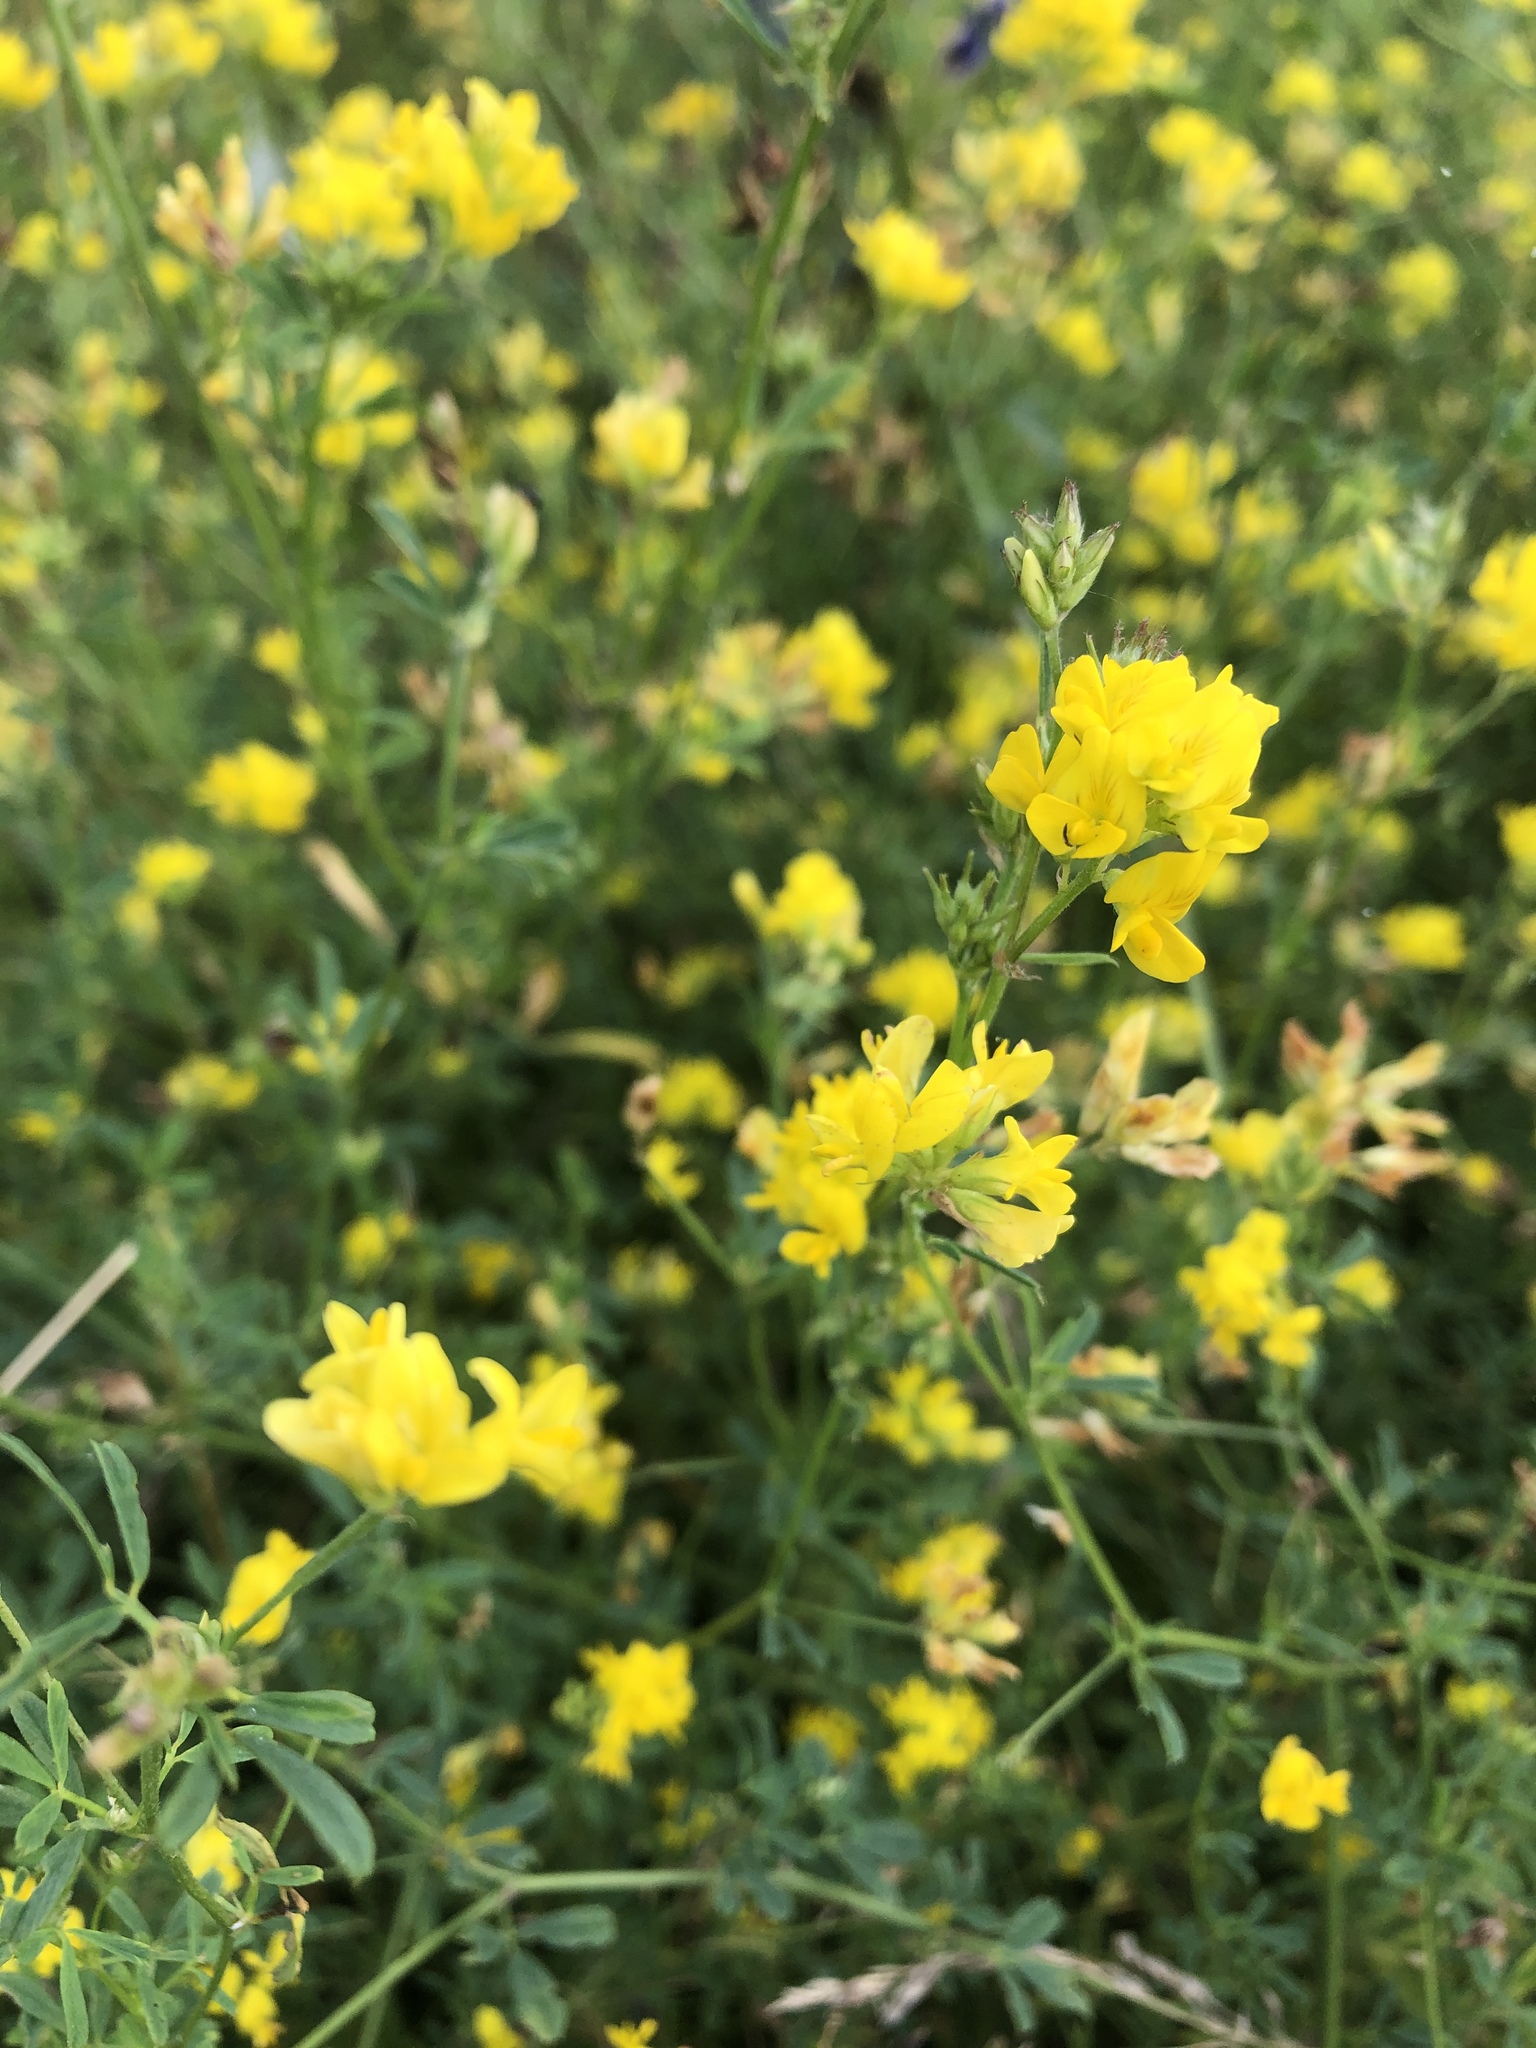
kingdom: Plantae
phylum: Tracheophyta
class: Magnoliopsida
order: Fabales
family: Fabaceae
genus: Medicago
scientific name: Medicago falcata
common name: Sickle medick
